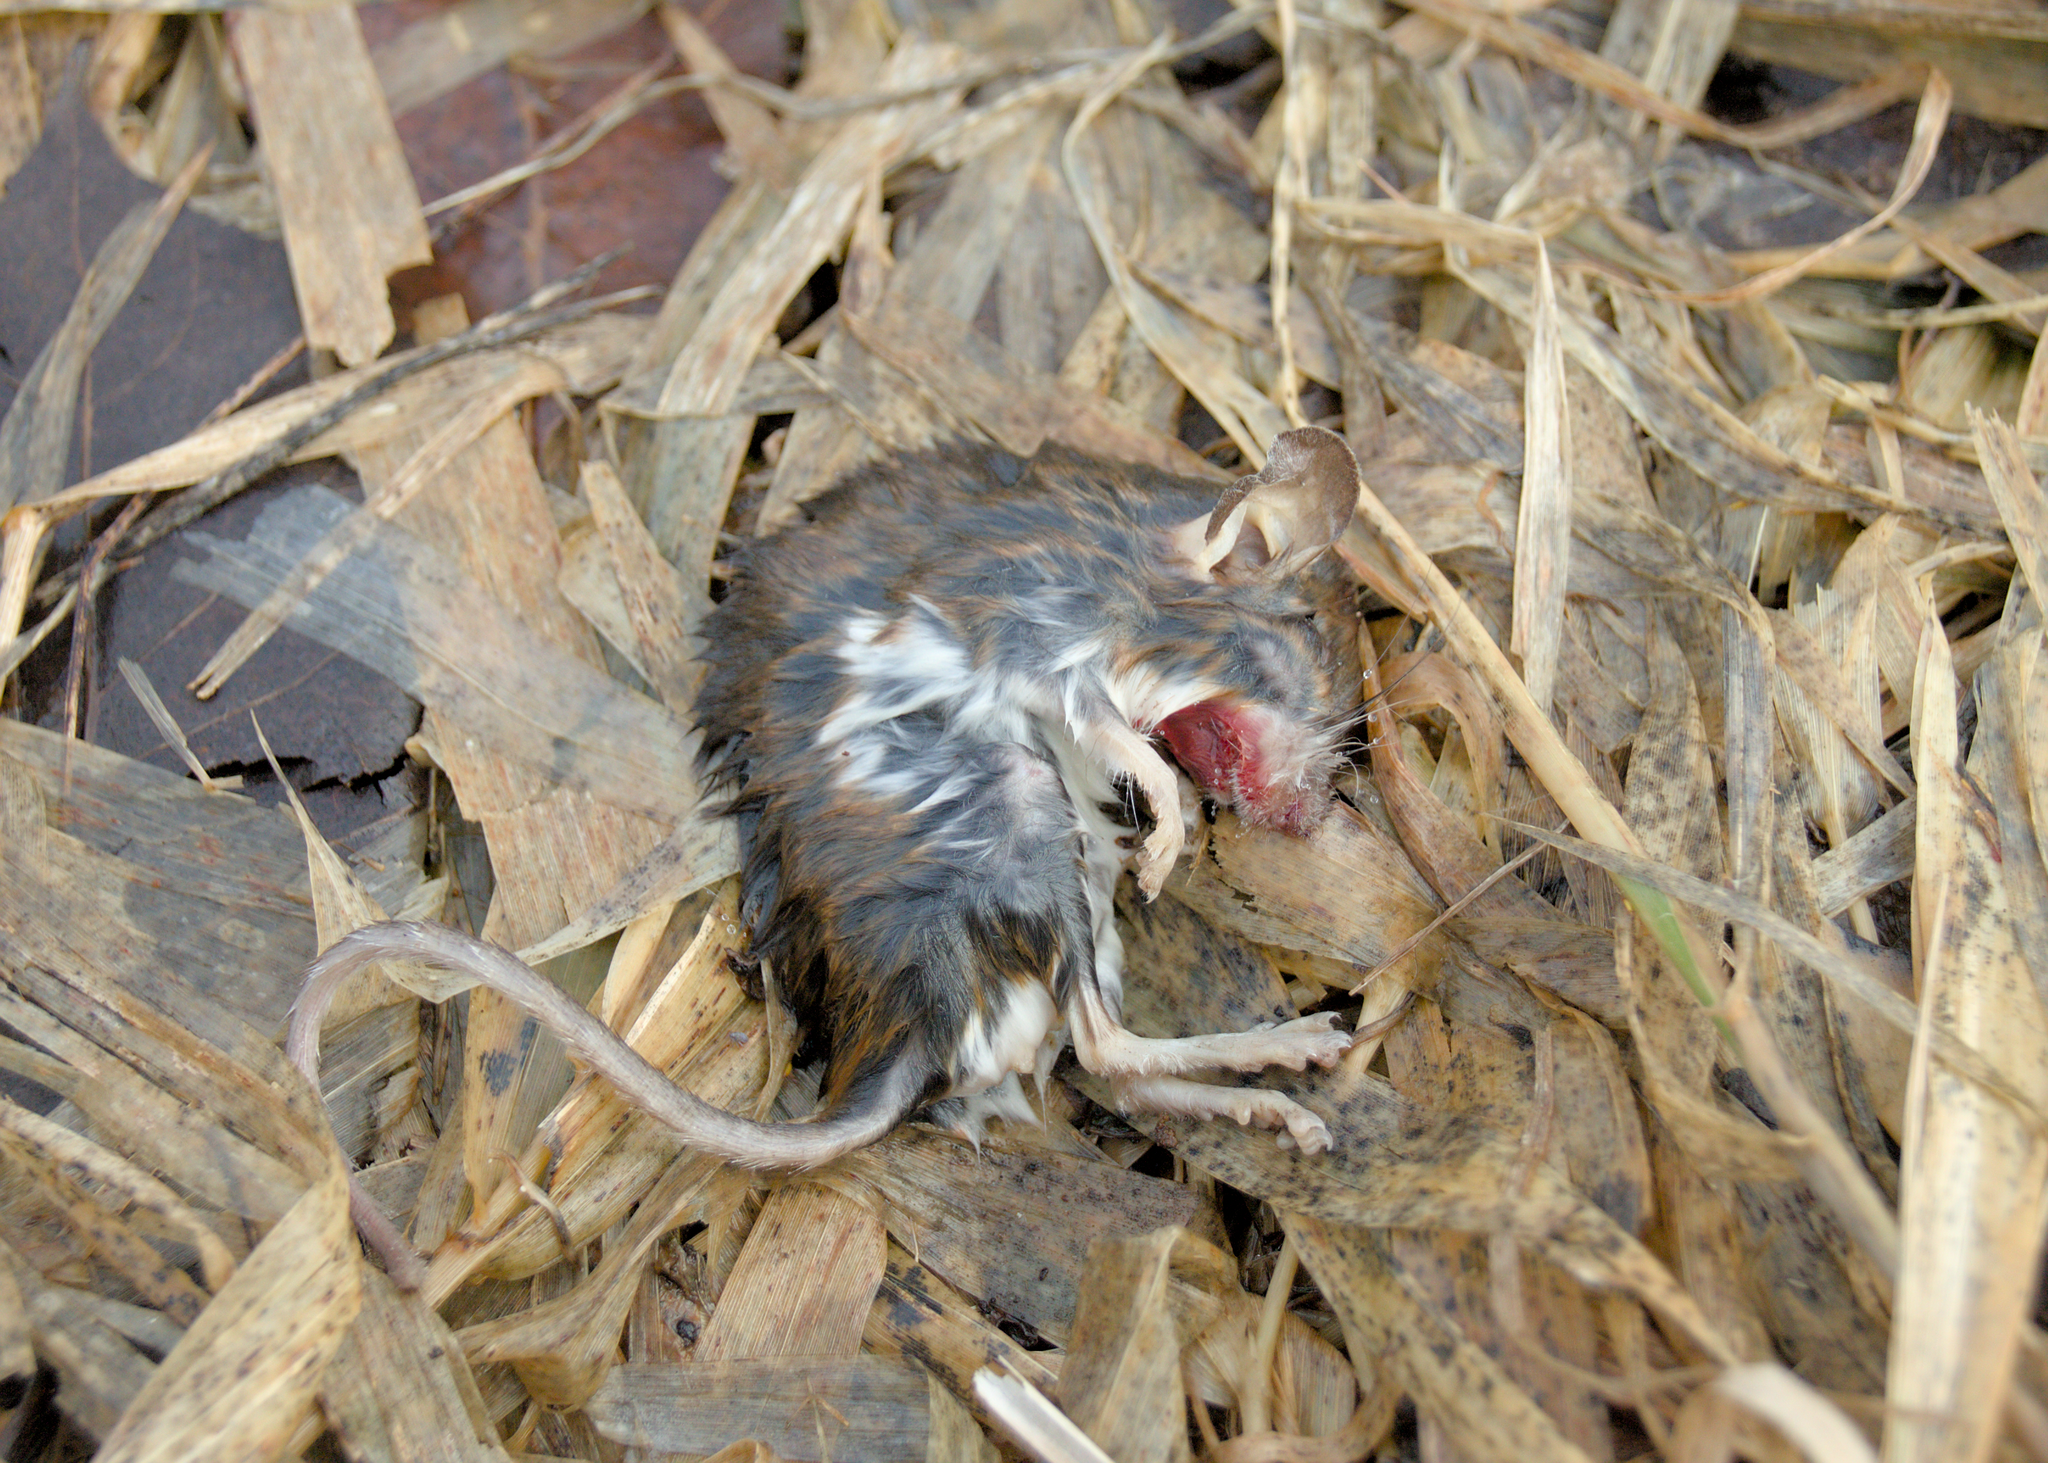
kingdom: Animalia
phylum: Chordata
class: Mammalia
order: Rodentia
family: Cricetidae
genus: Peromyscus
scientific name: Peromyscus maniculatus
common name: Deer mouse
